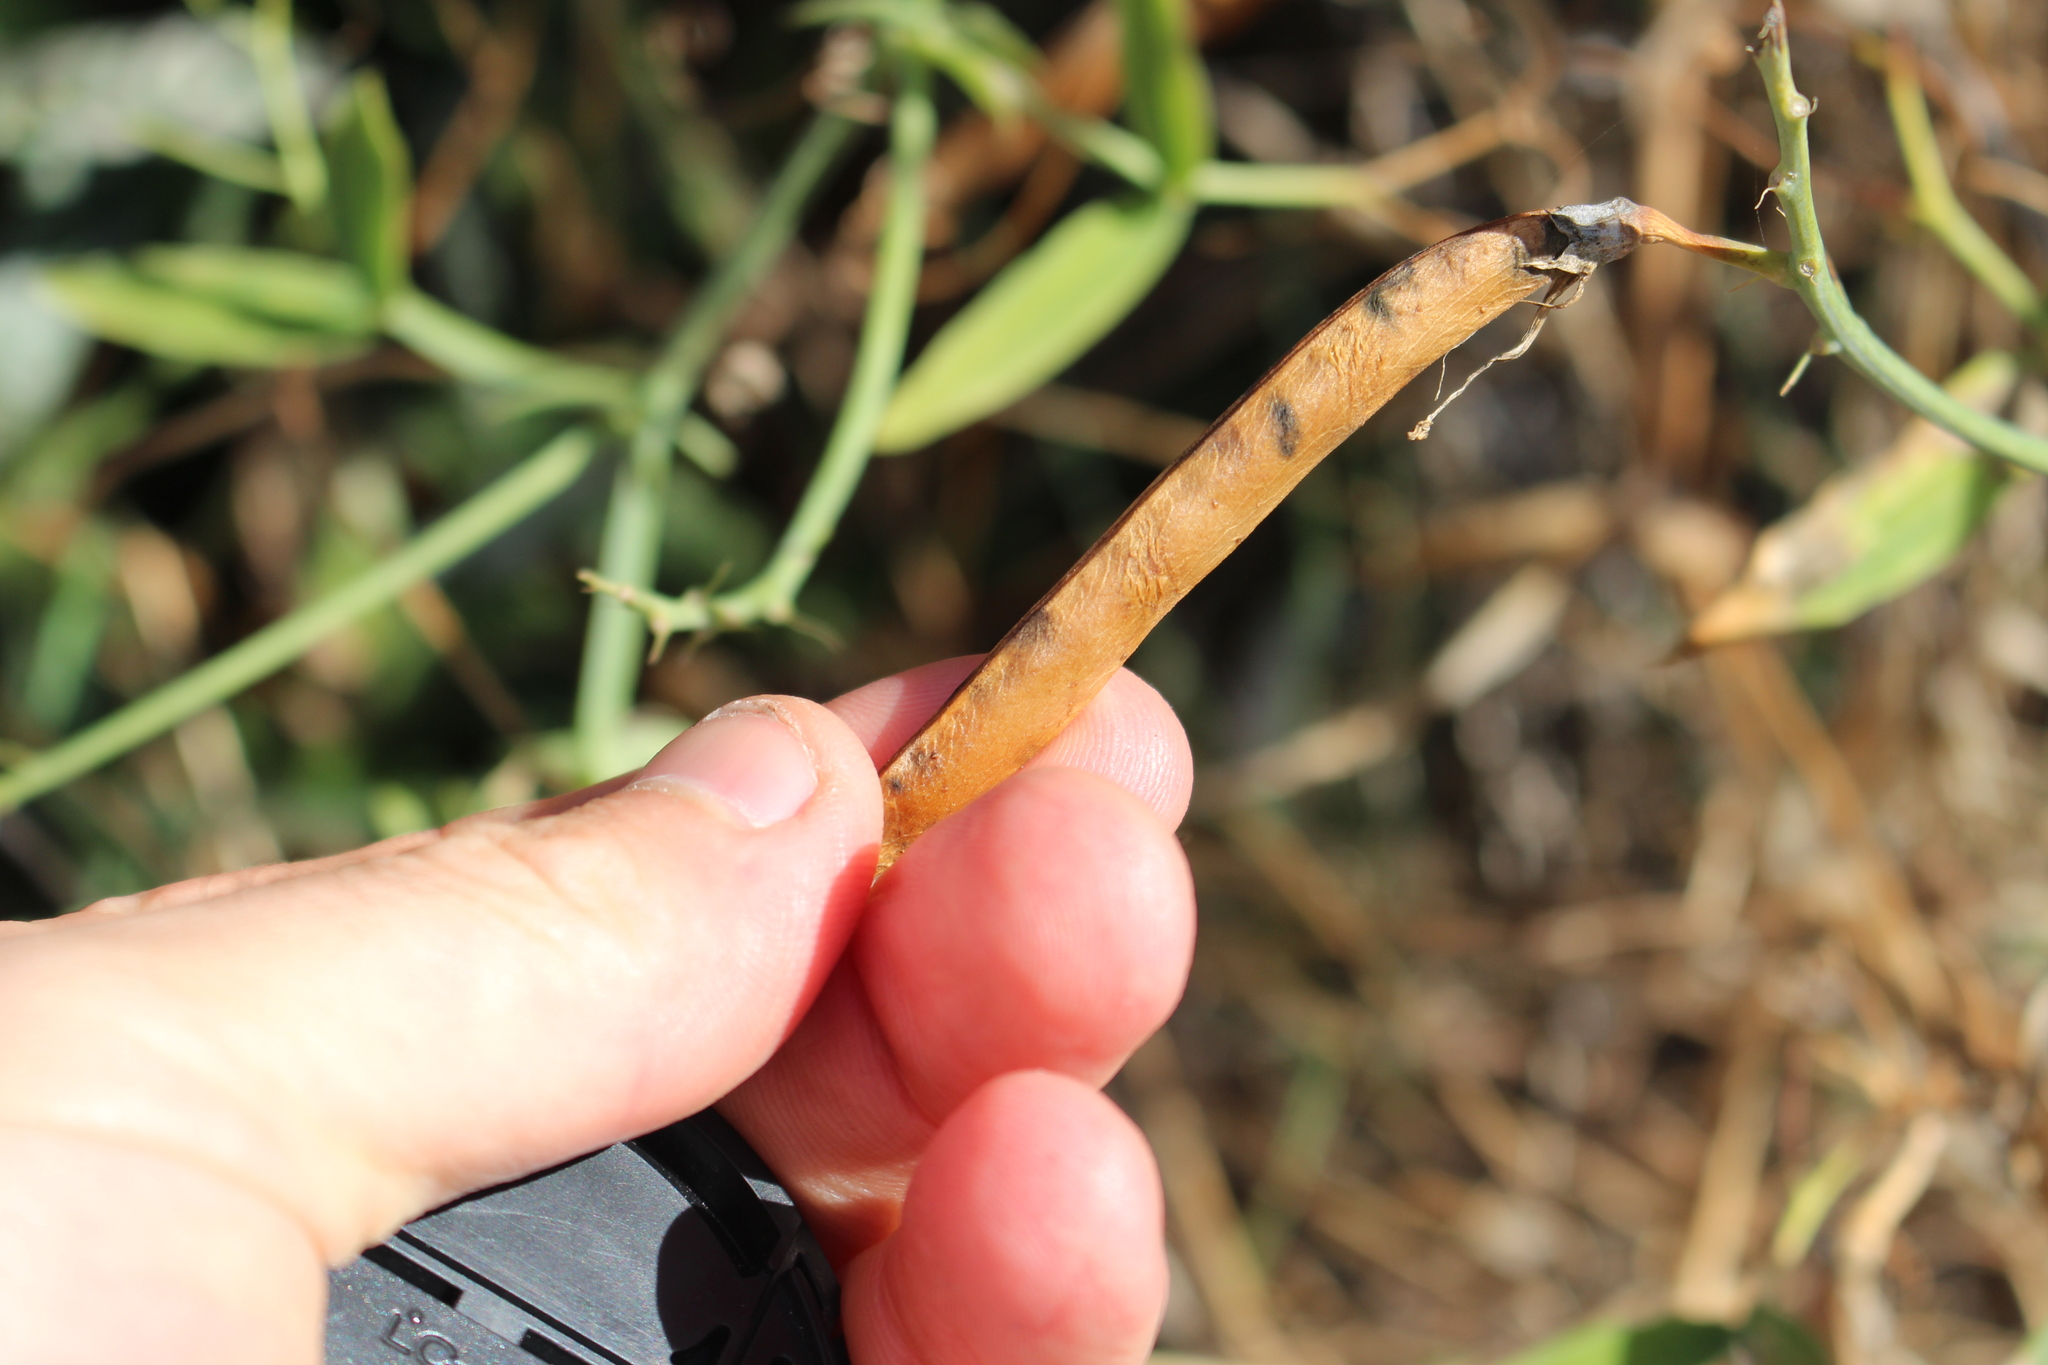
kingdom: Plantae
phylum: Tracheophyta
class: Magnoliopsida
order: Fabales
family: Fabaceae
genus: Lathyrus
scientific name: Lathyrus latifolius
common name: Perennial pea
